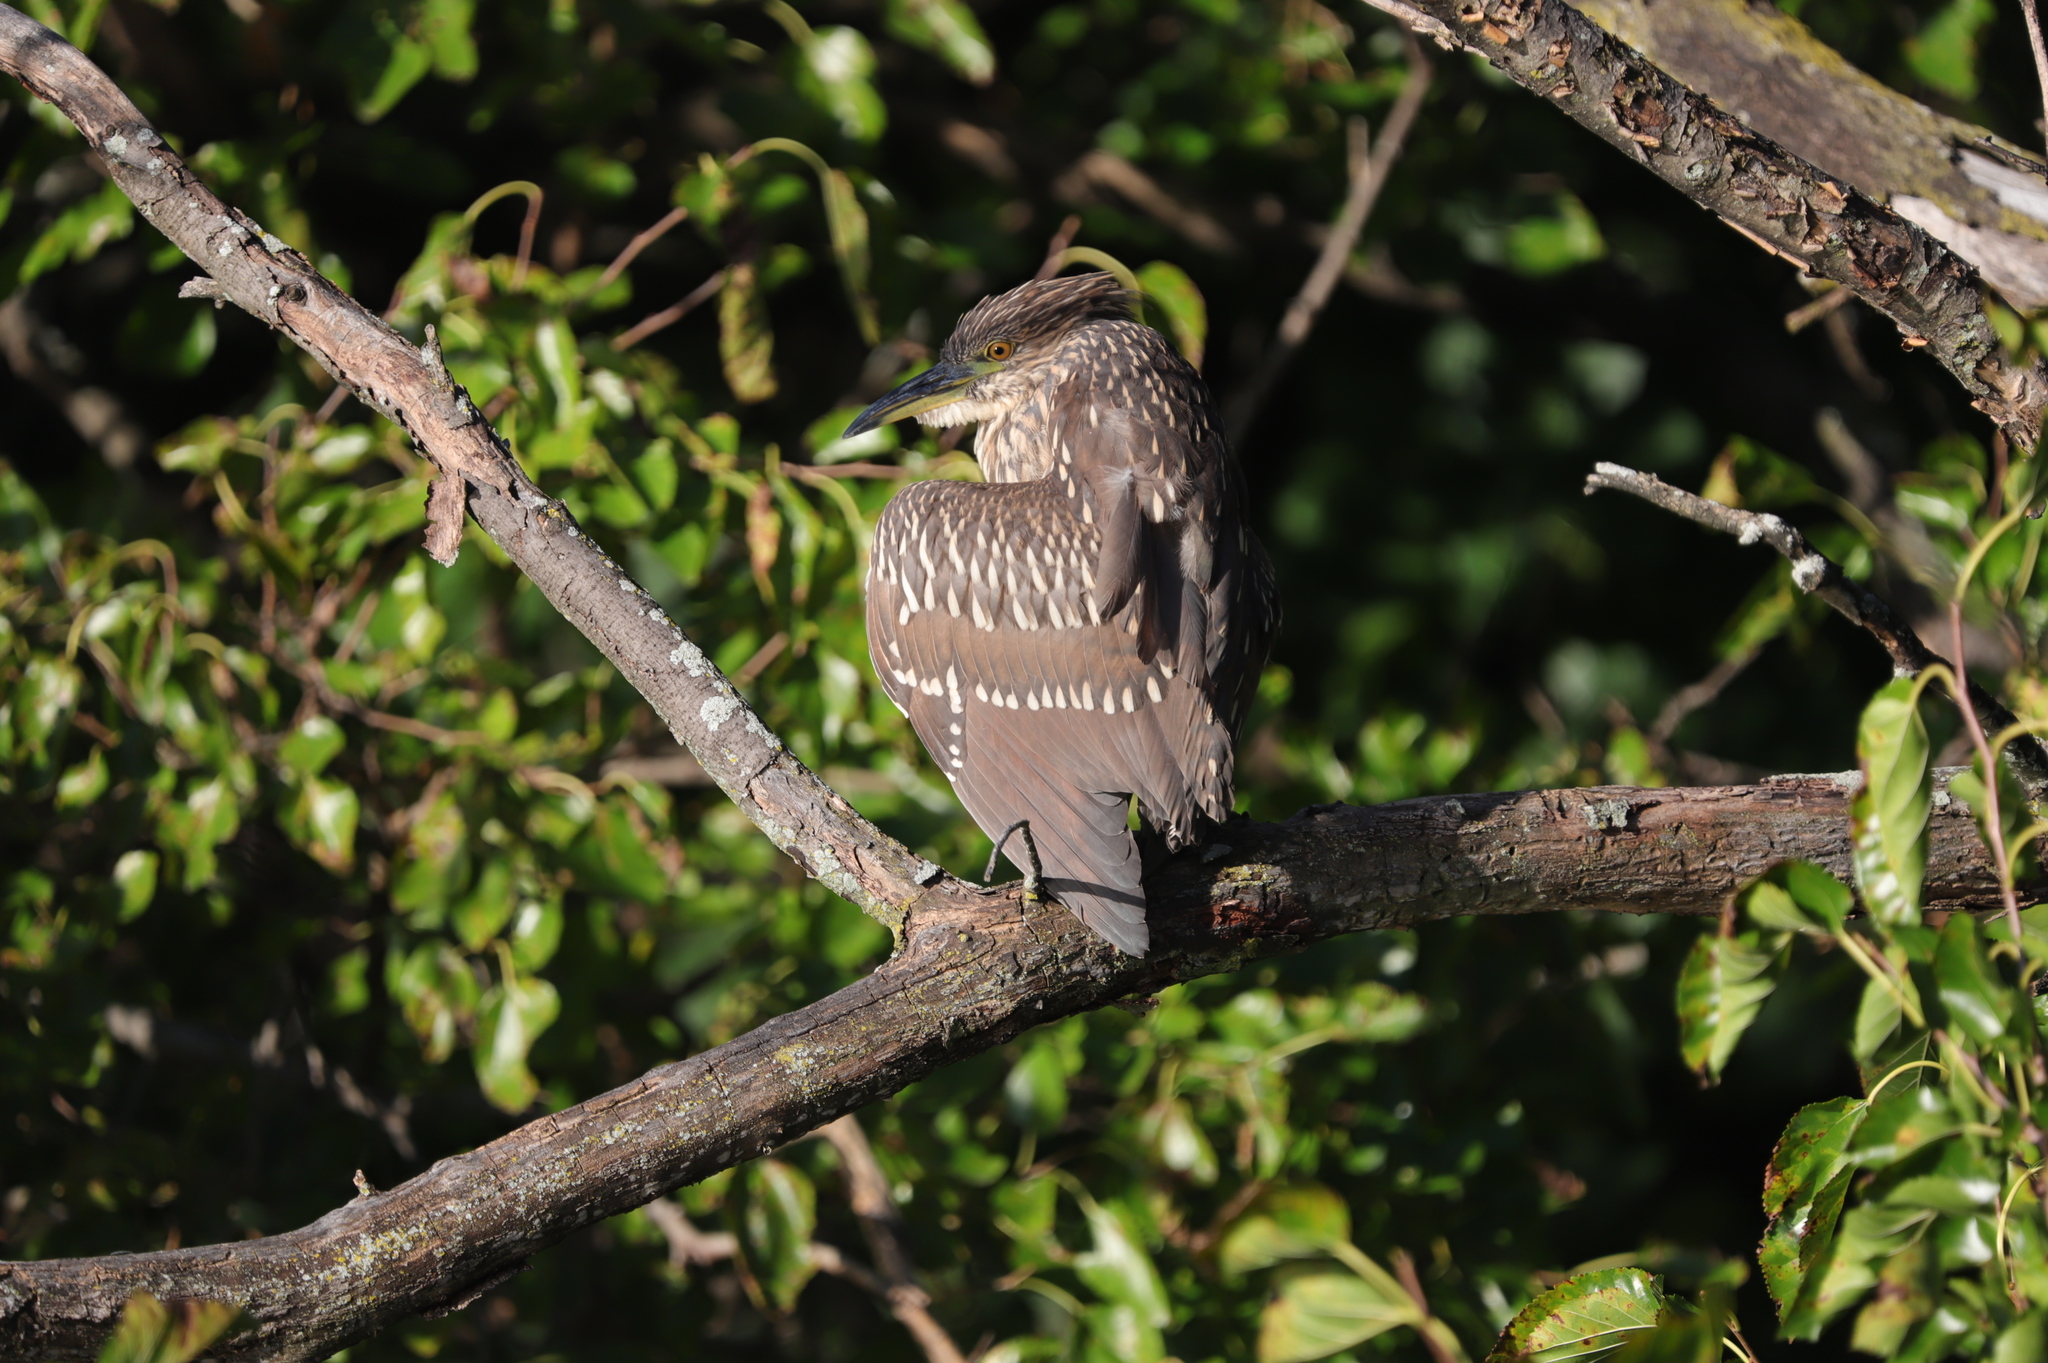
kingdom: Animalia
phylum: Chordata
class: Aves
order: Pelecaniformes
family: Ardeidae
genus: Nycticorax
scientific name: Nycticorax nycticorax
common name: Black-crowned night heron
